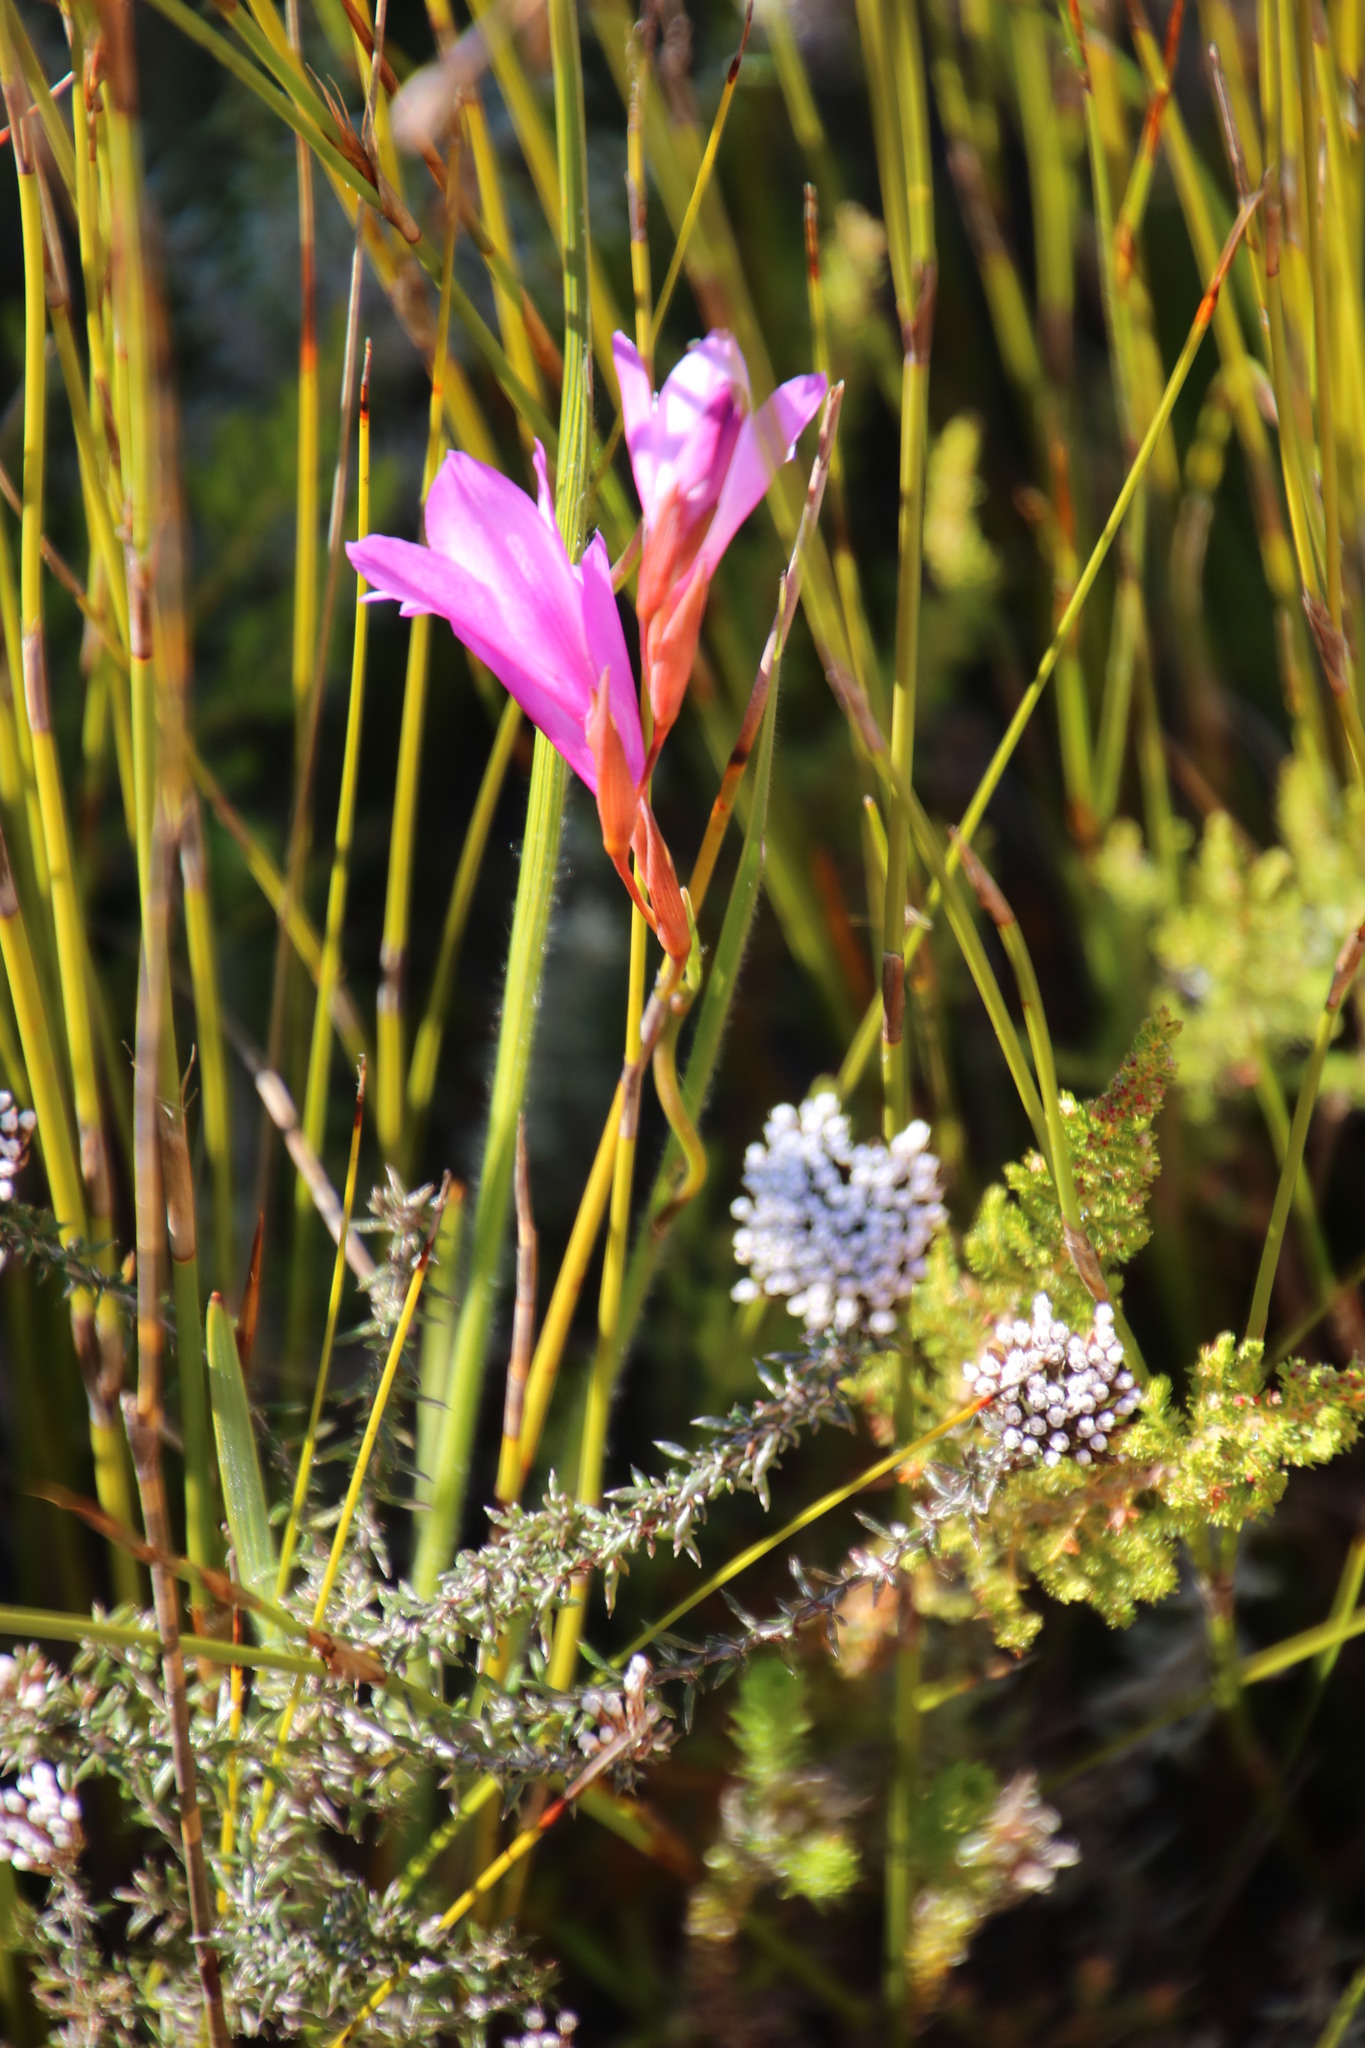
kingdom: Plantae
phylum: Tracheophyta
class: Liliopsida
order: Asparagales
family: Iridaceae
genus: Gladiolus
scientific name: Gladiolus hirsutus
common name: Small pink afrikaner
